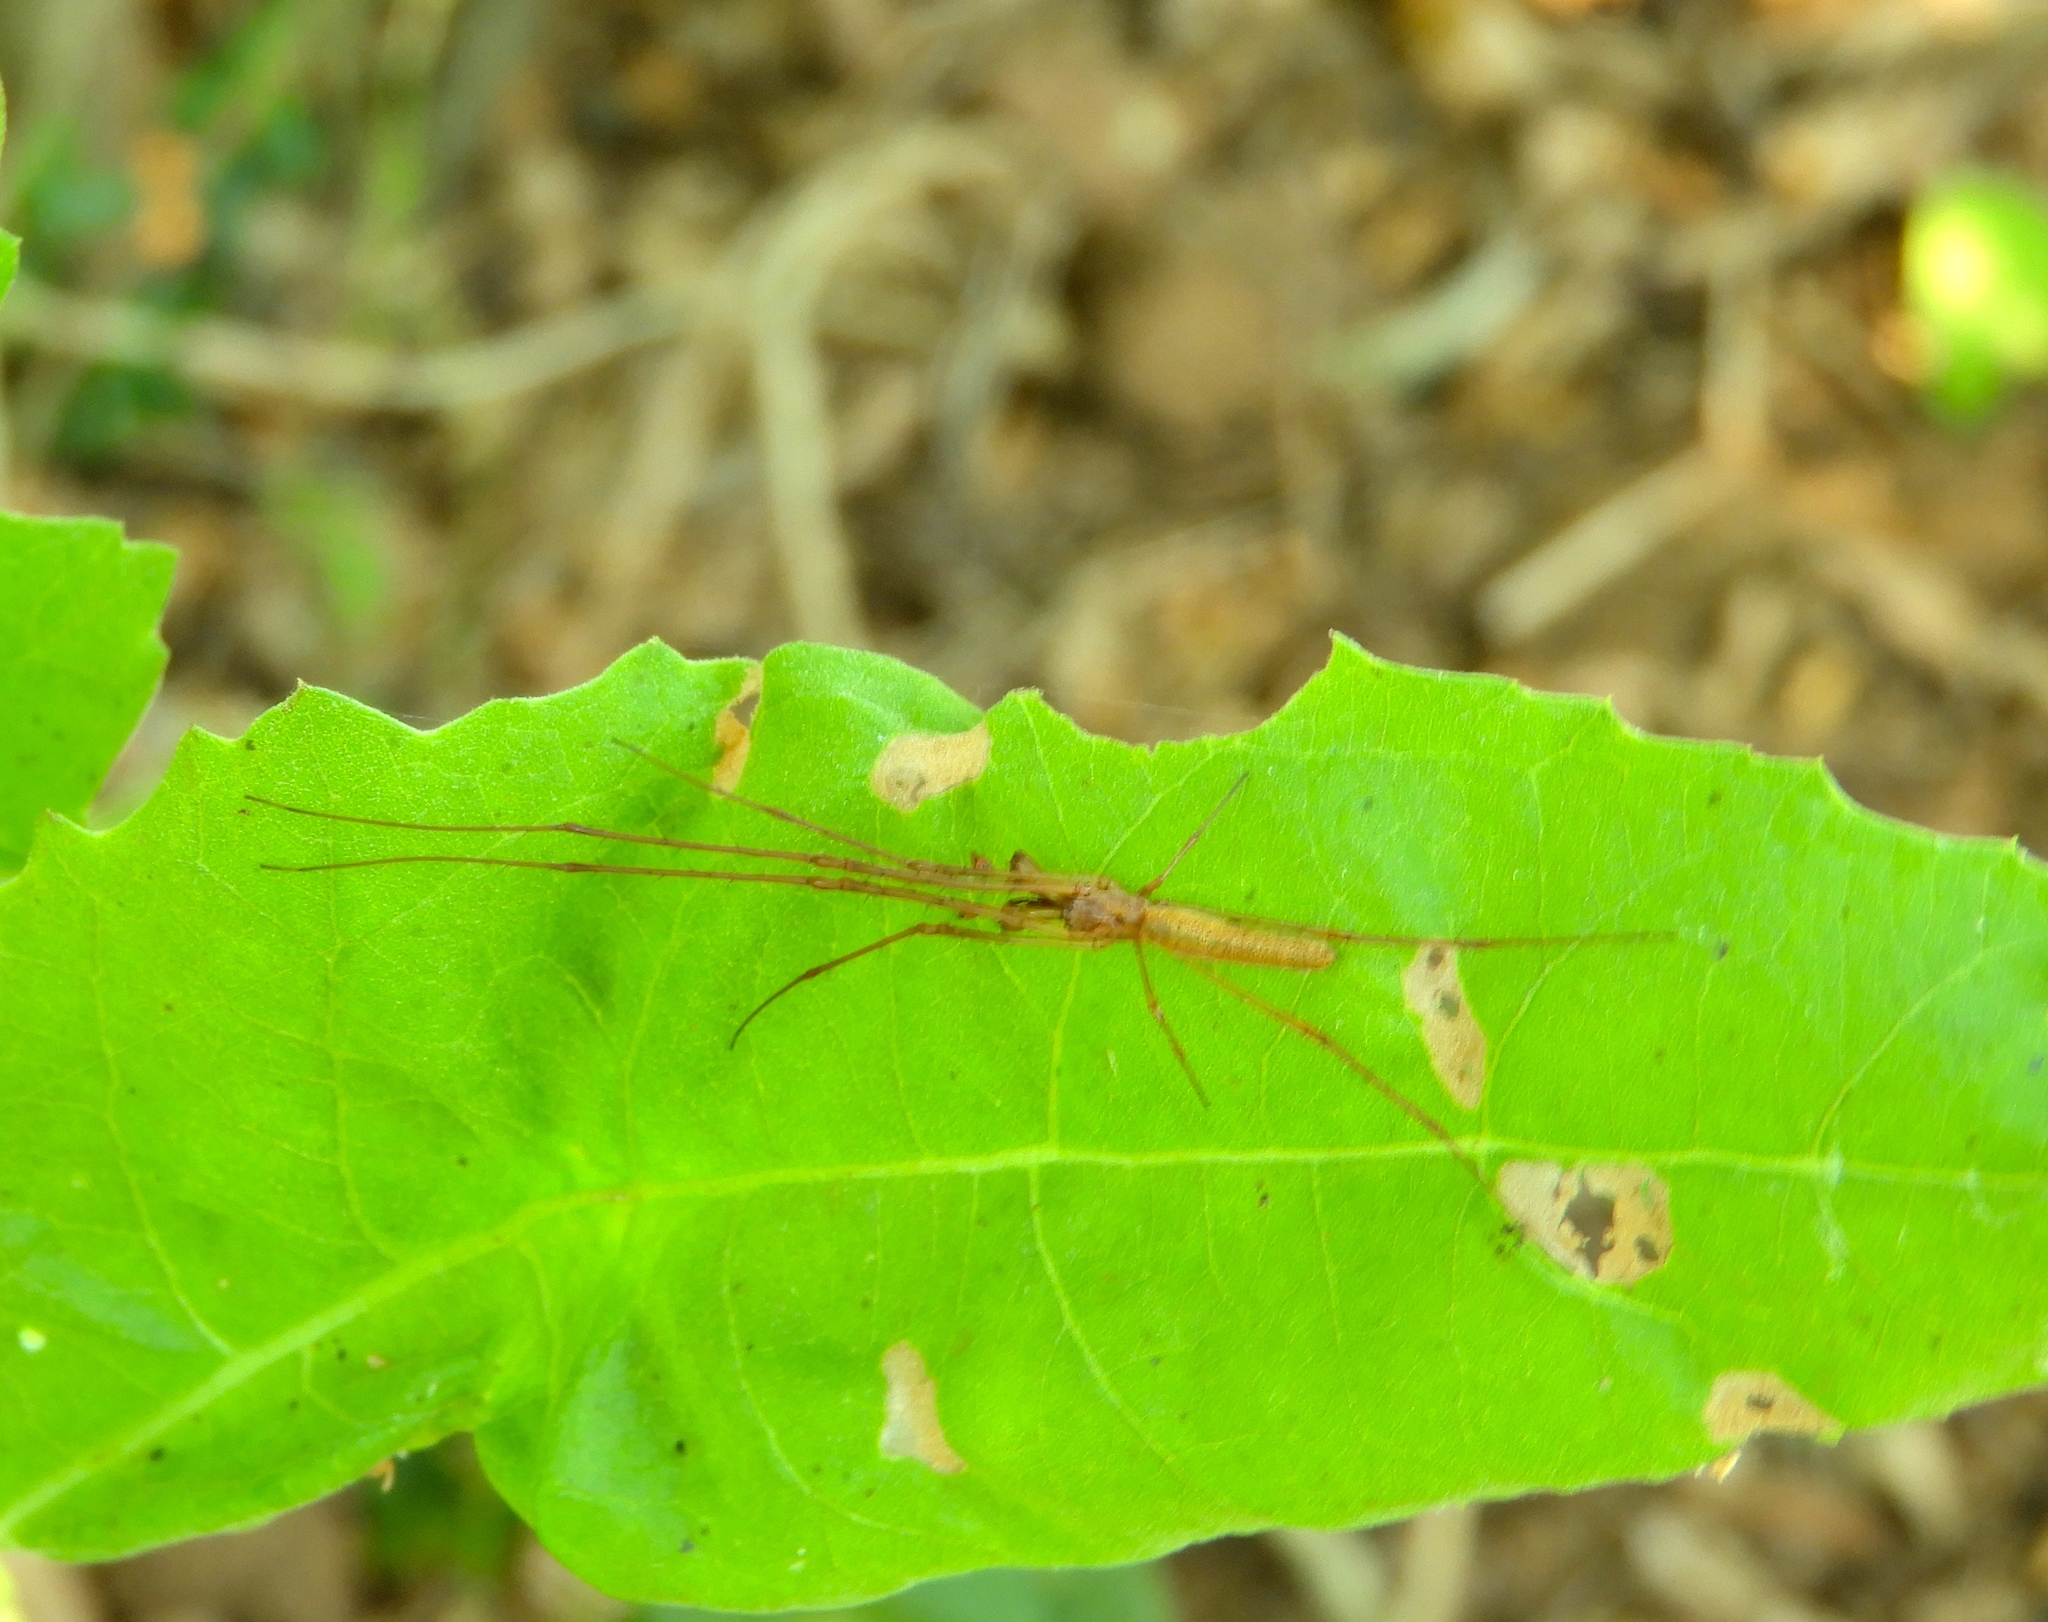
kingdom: Animalia
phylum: Arthropoda
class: Arachnida
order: Araneae
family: Tetragnathidae
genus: Tetragnatha
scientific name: Tetragnatha
